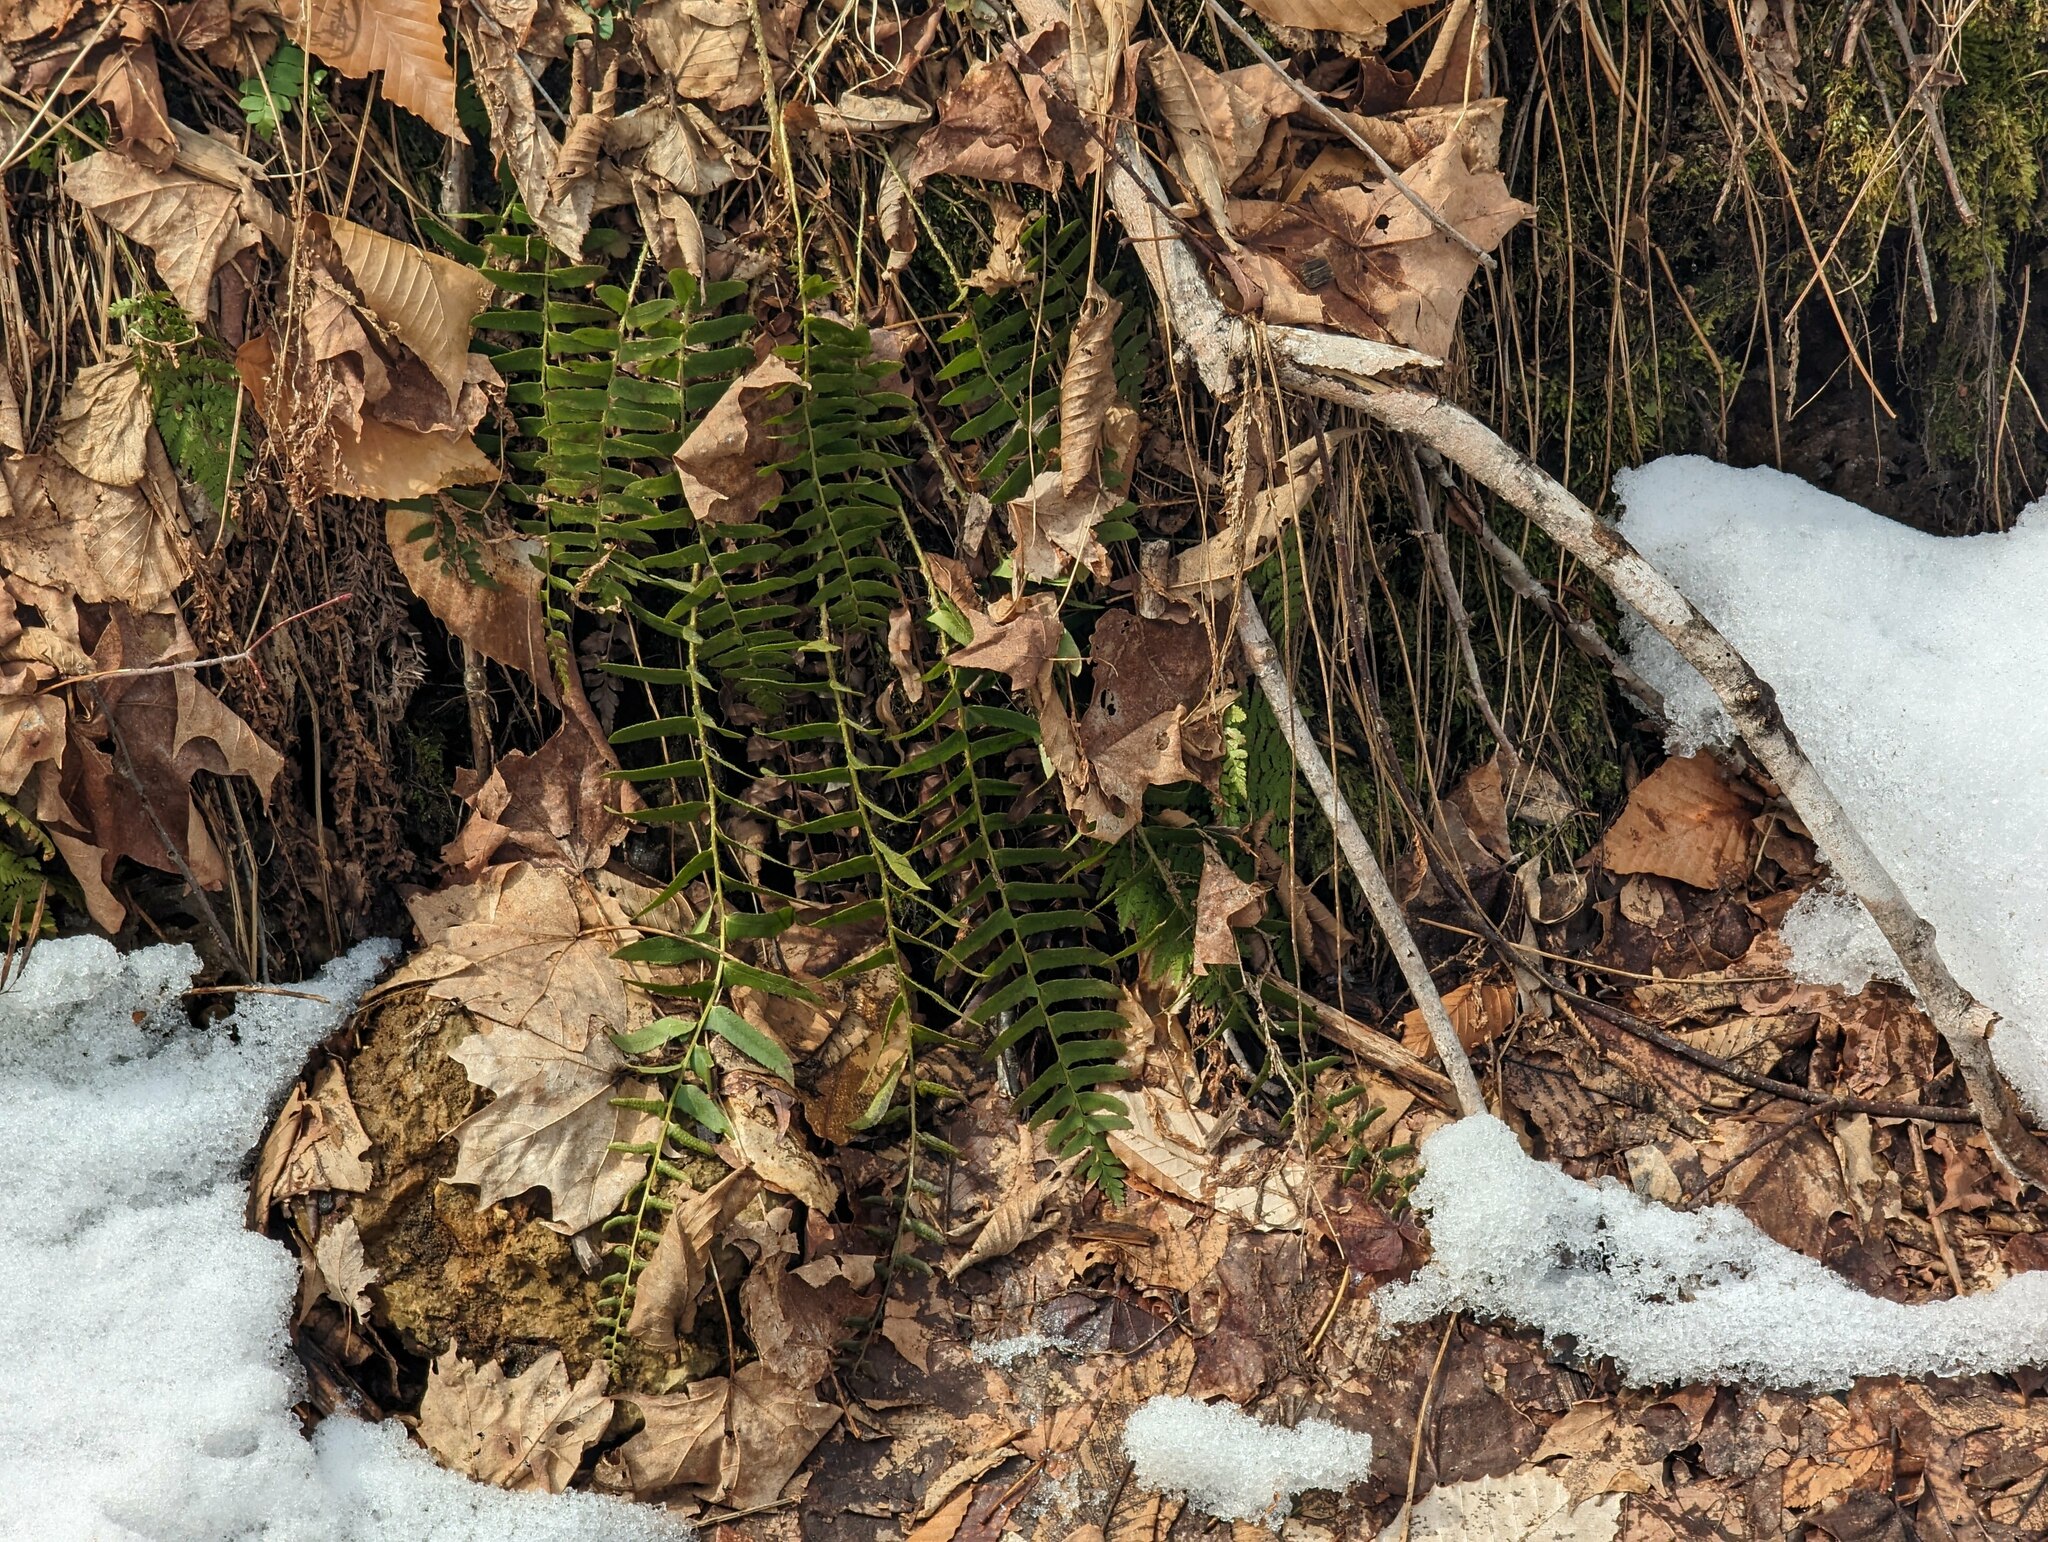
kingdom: Plantae
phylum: Tracheophyta
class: Polypodiopsida
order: Polypodiales
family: Dryopteridaceae
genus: Polystichum
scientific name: Polystichum acrostichoides
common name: Christmas fern
